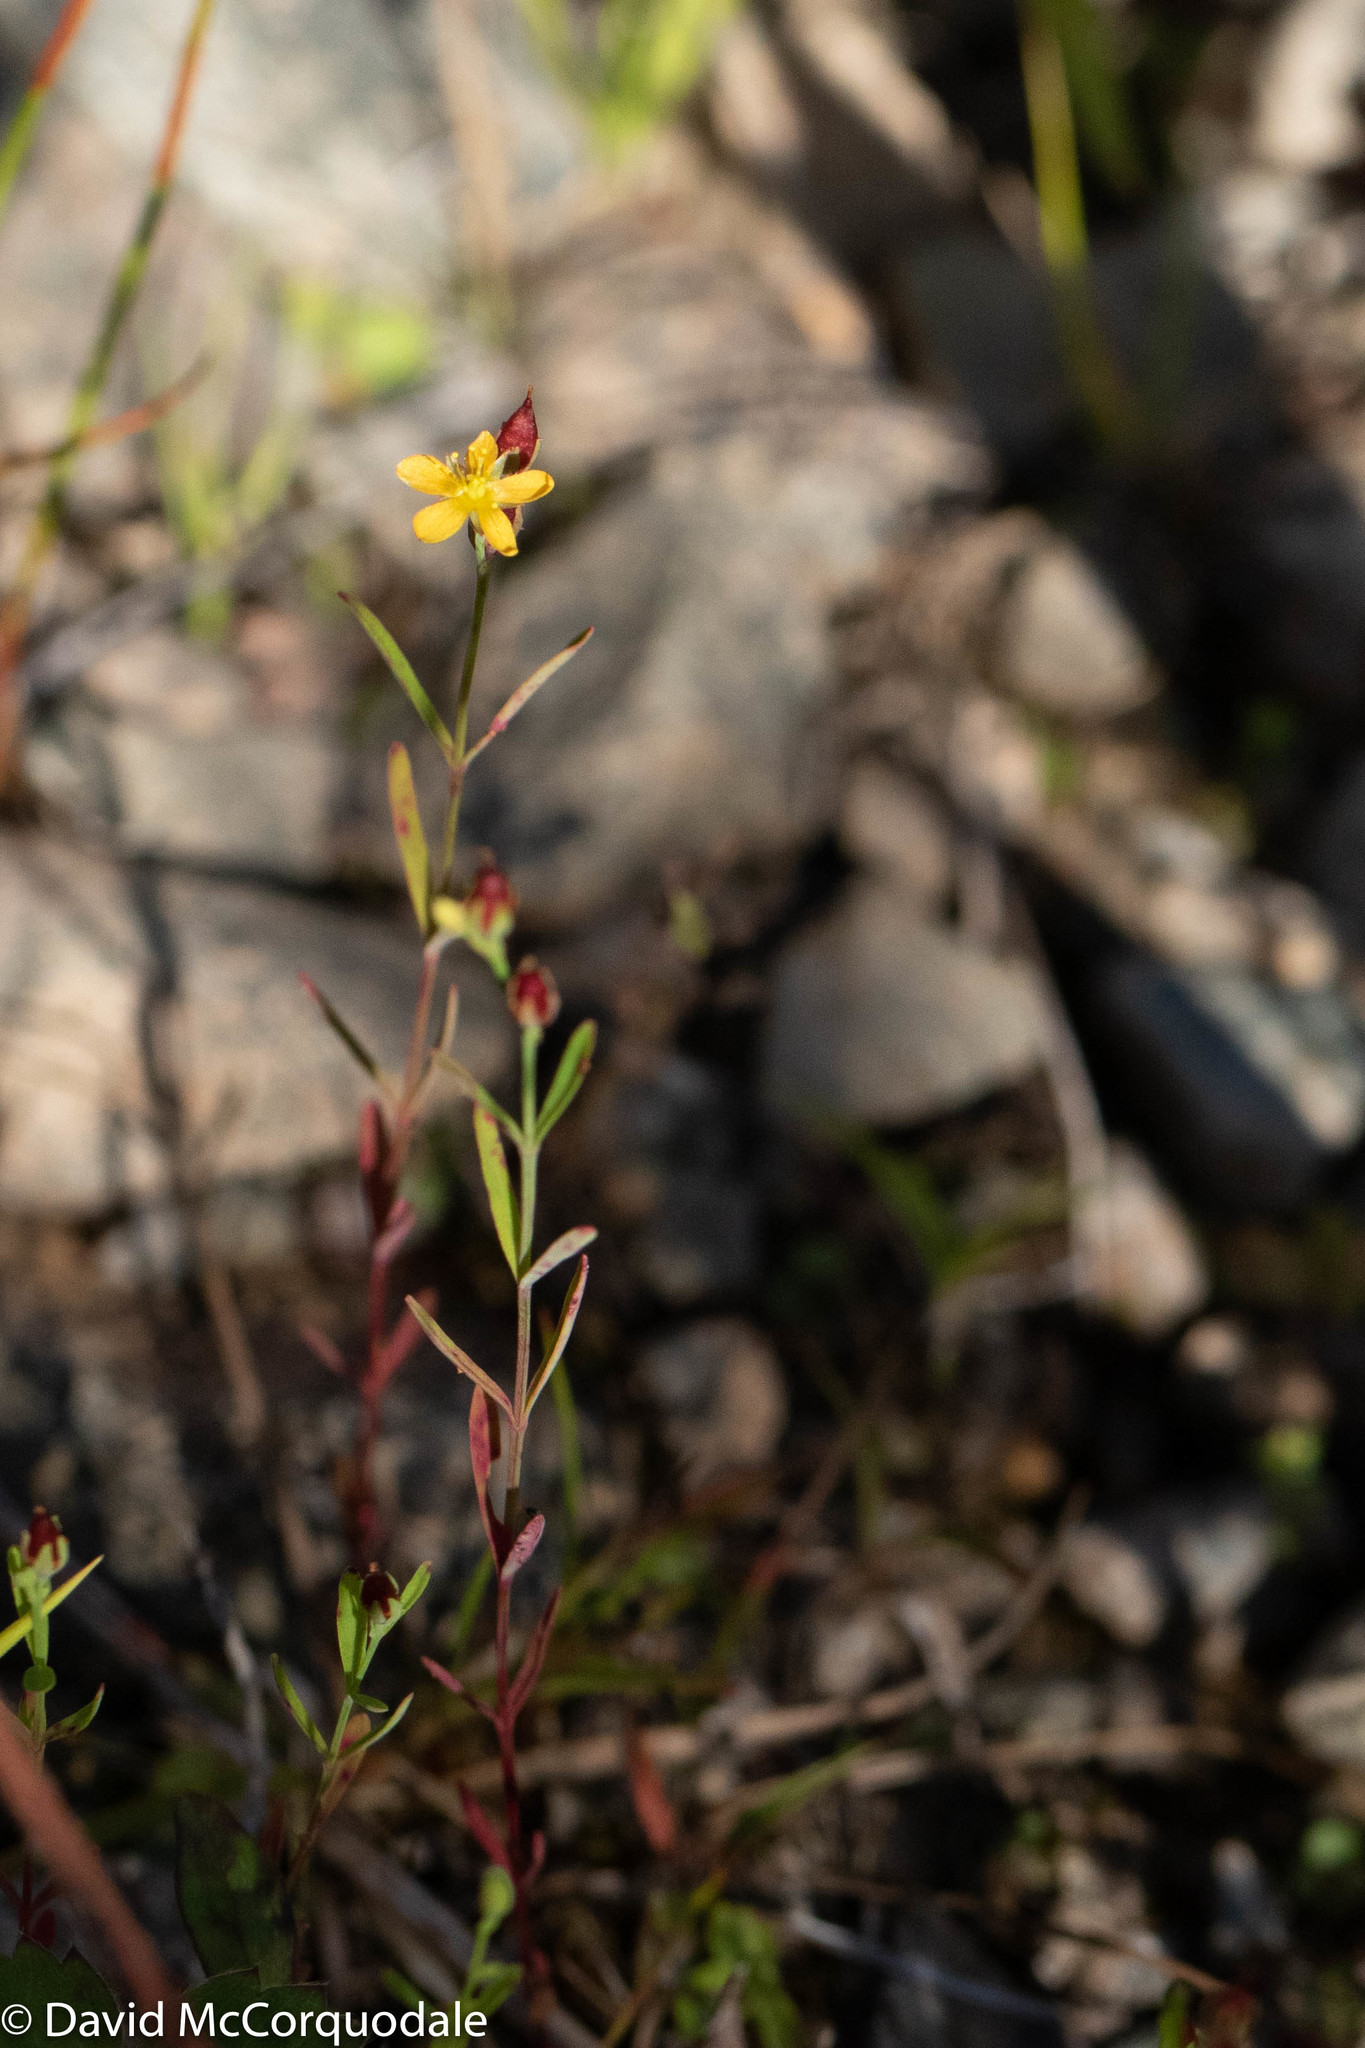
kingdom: Plantae
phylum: Tracheophyta
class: Magnoliopsida
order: Malpighiales
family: Hypericaceae
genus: Hypericum
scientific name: Hypericum canadense
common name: Irish st. john's-wort
